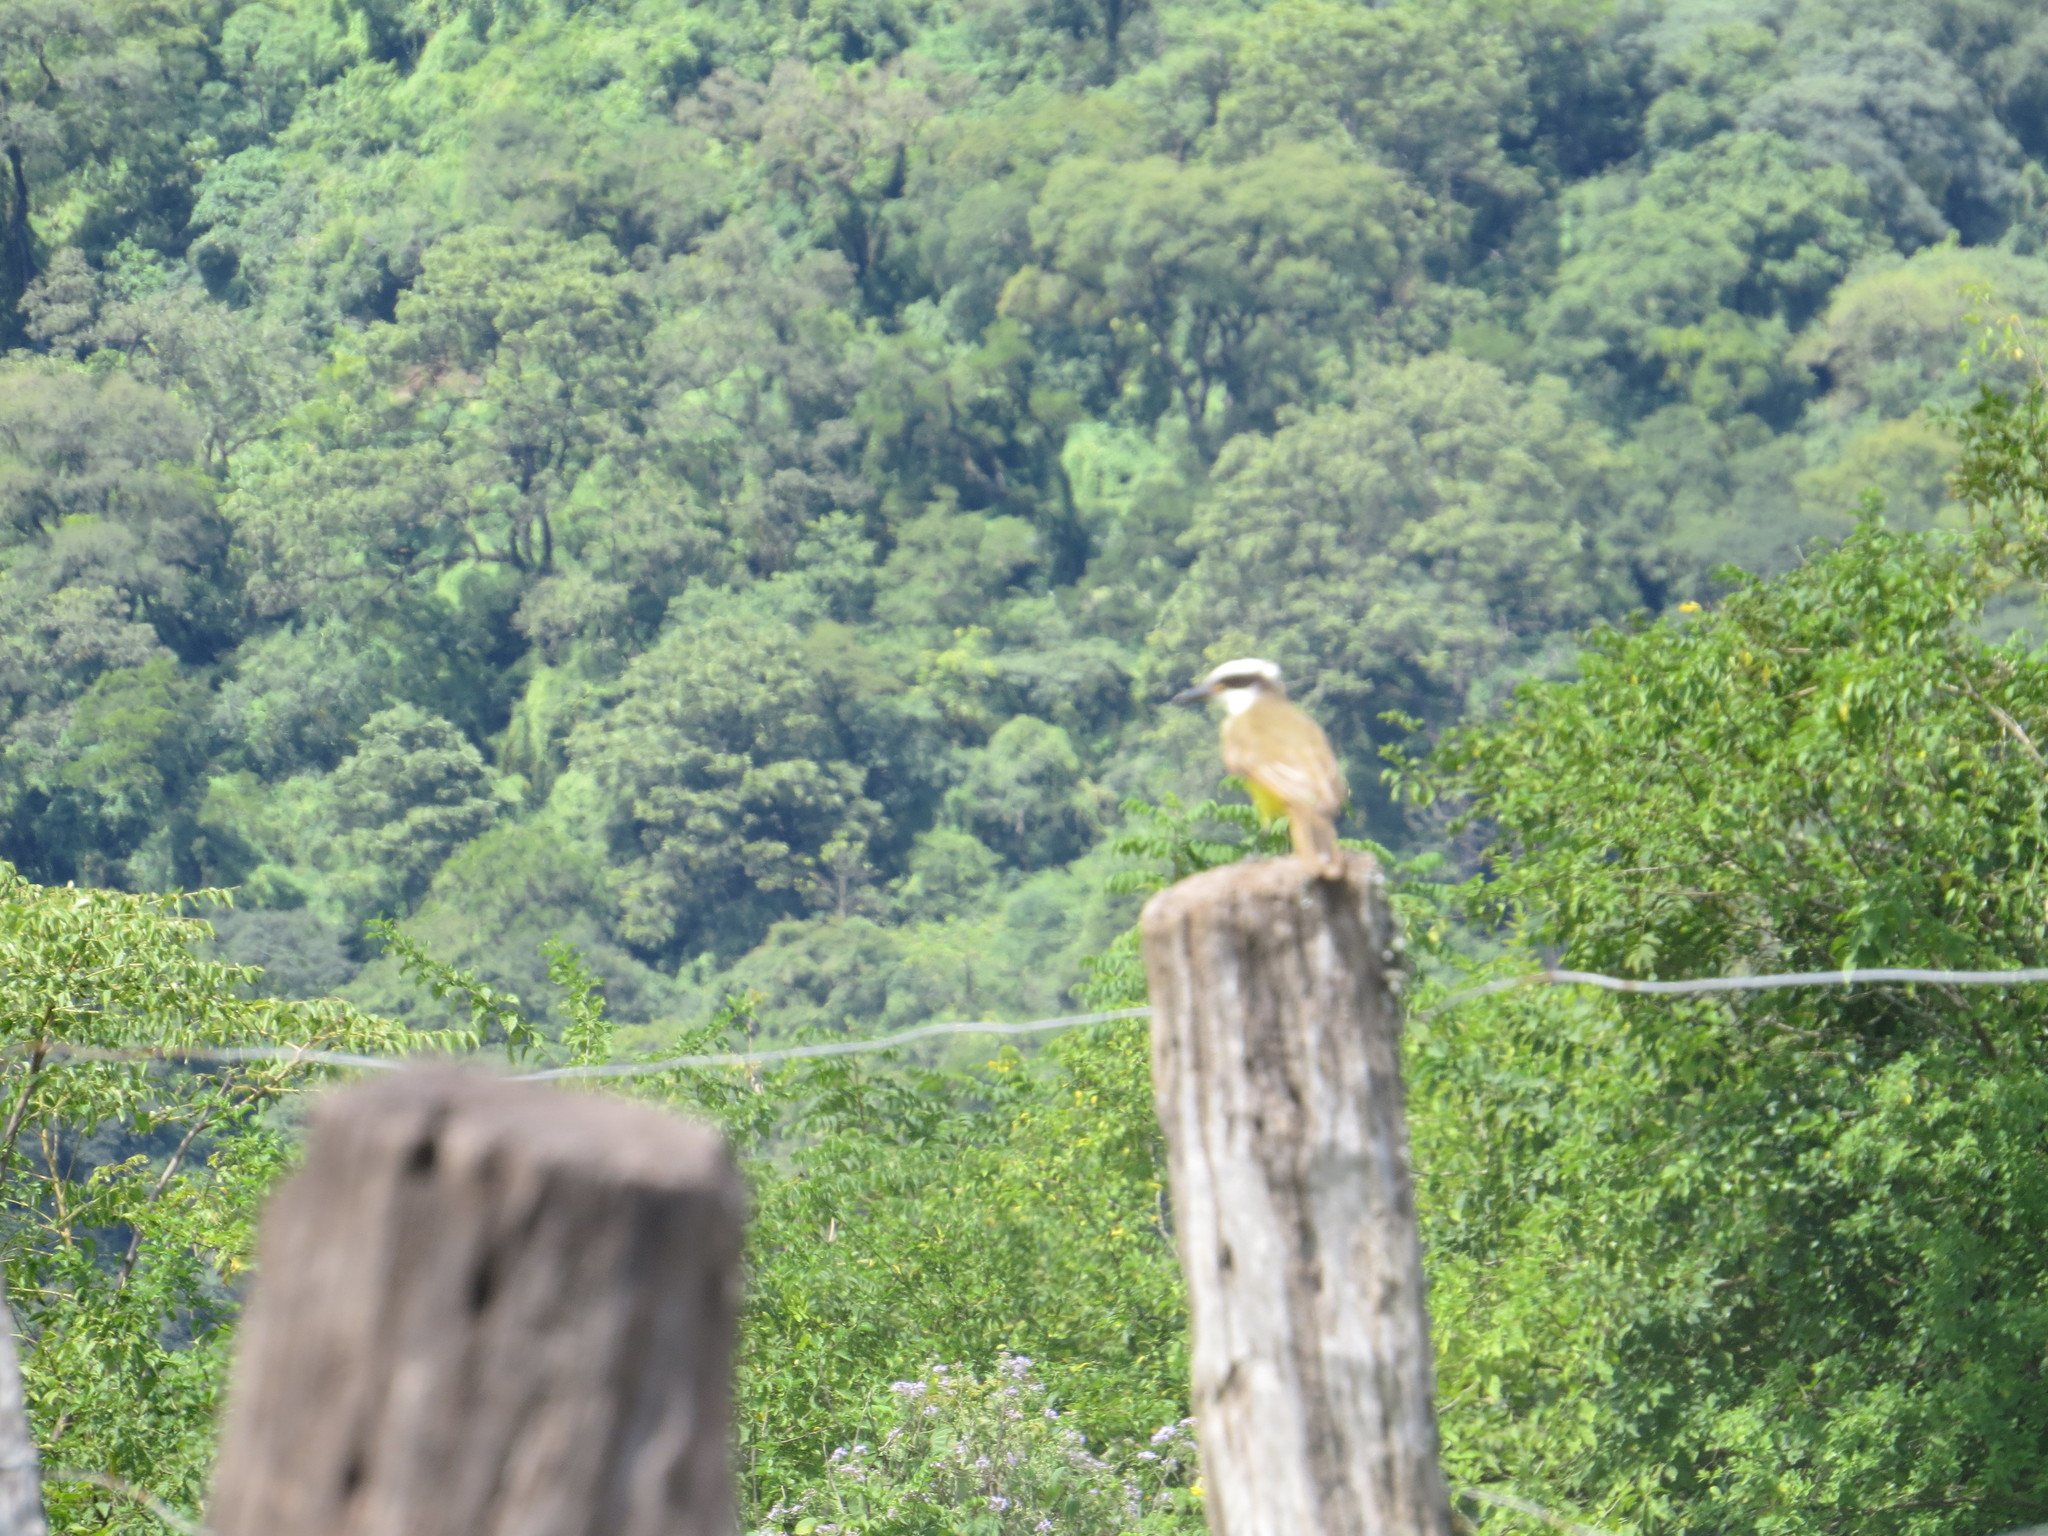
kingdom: Animalia
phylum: Chordata
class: Aves
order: Passeriformes
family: Tyrannidae
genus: Pitangus
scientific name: Pitangus sulphuratus
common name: Great kiskadee
